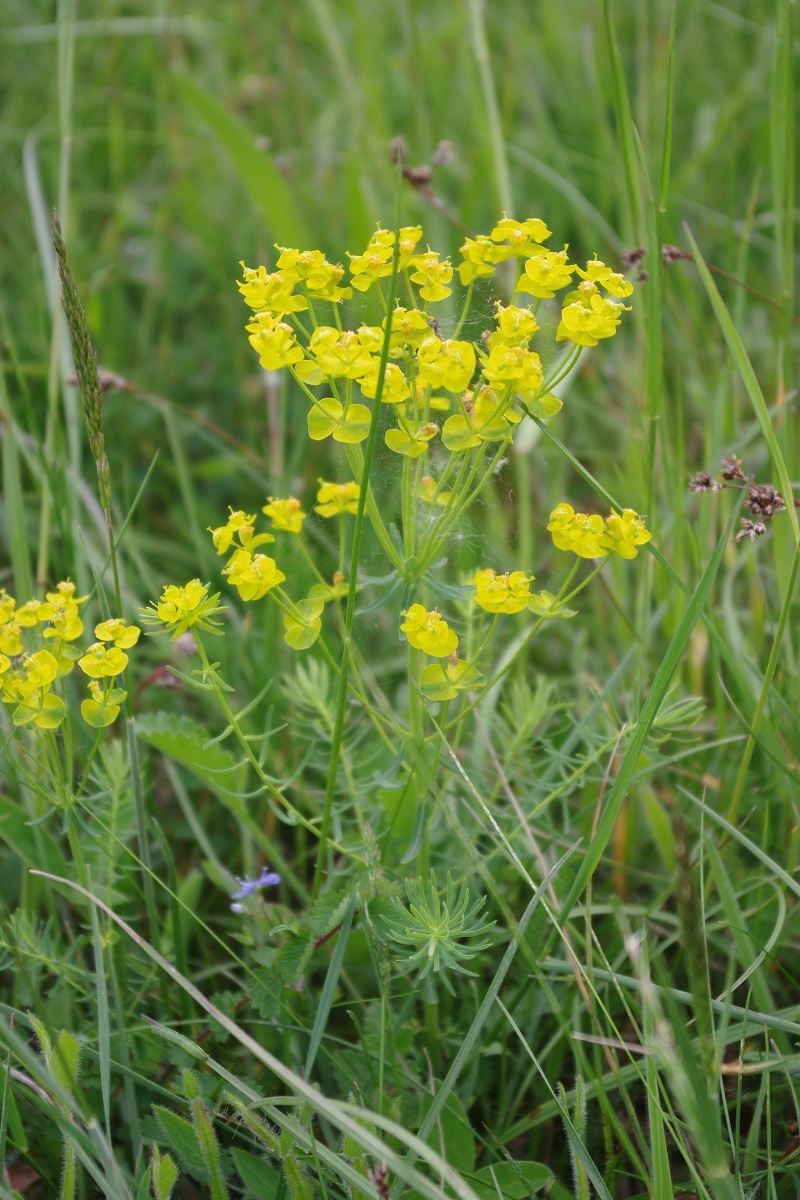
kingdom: Plantae
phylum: Tracheophyta
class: Magnoliopsida
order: Malpighiales
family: Euphorbiaceae
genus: Euphorbia
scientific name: Euphorbia cyparissias
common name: Cypress spurge
